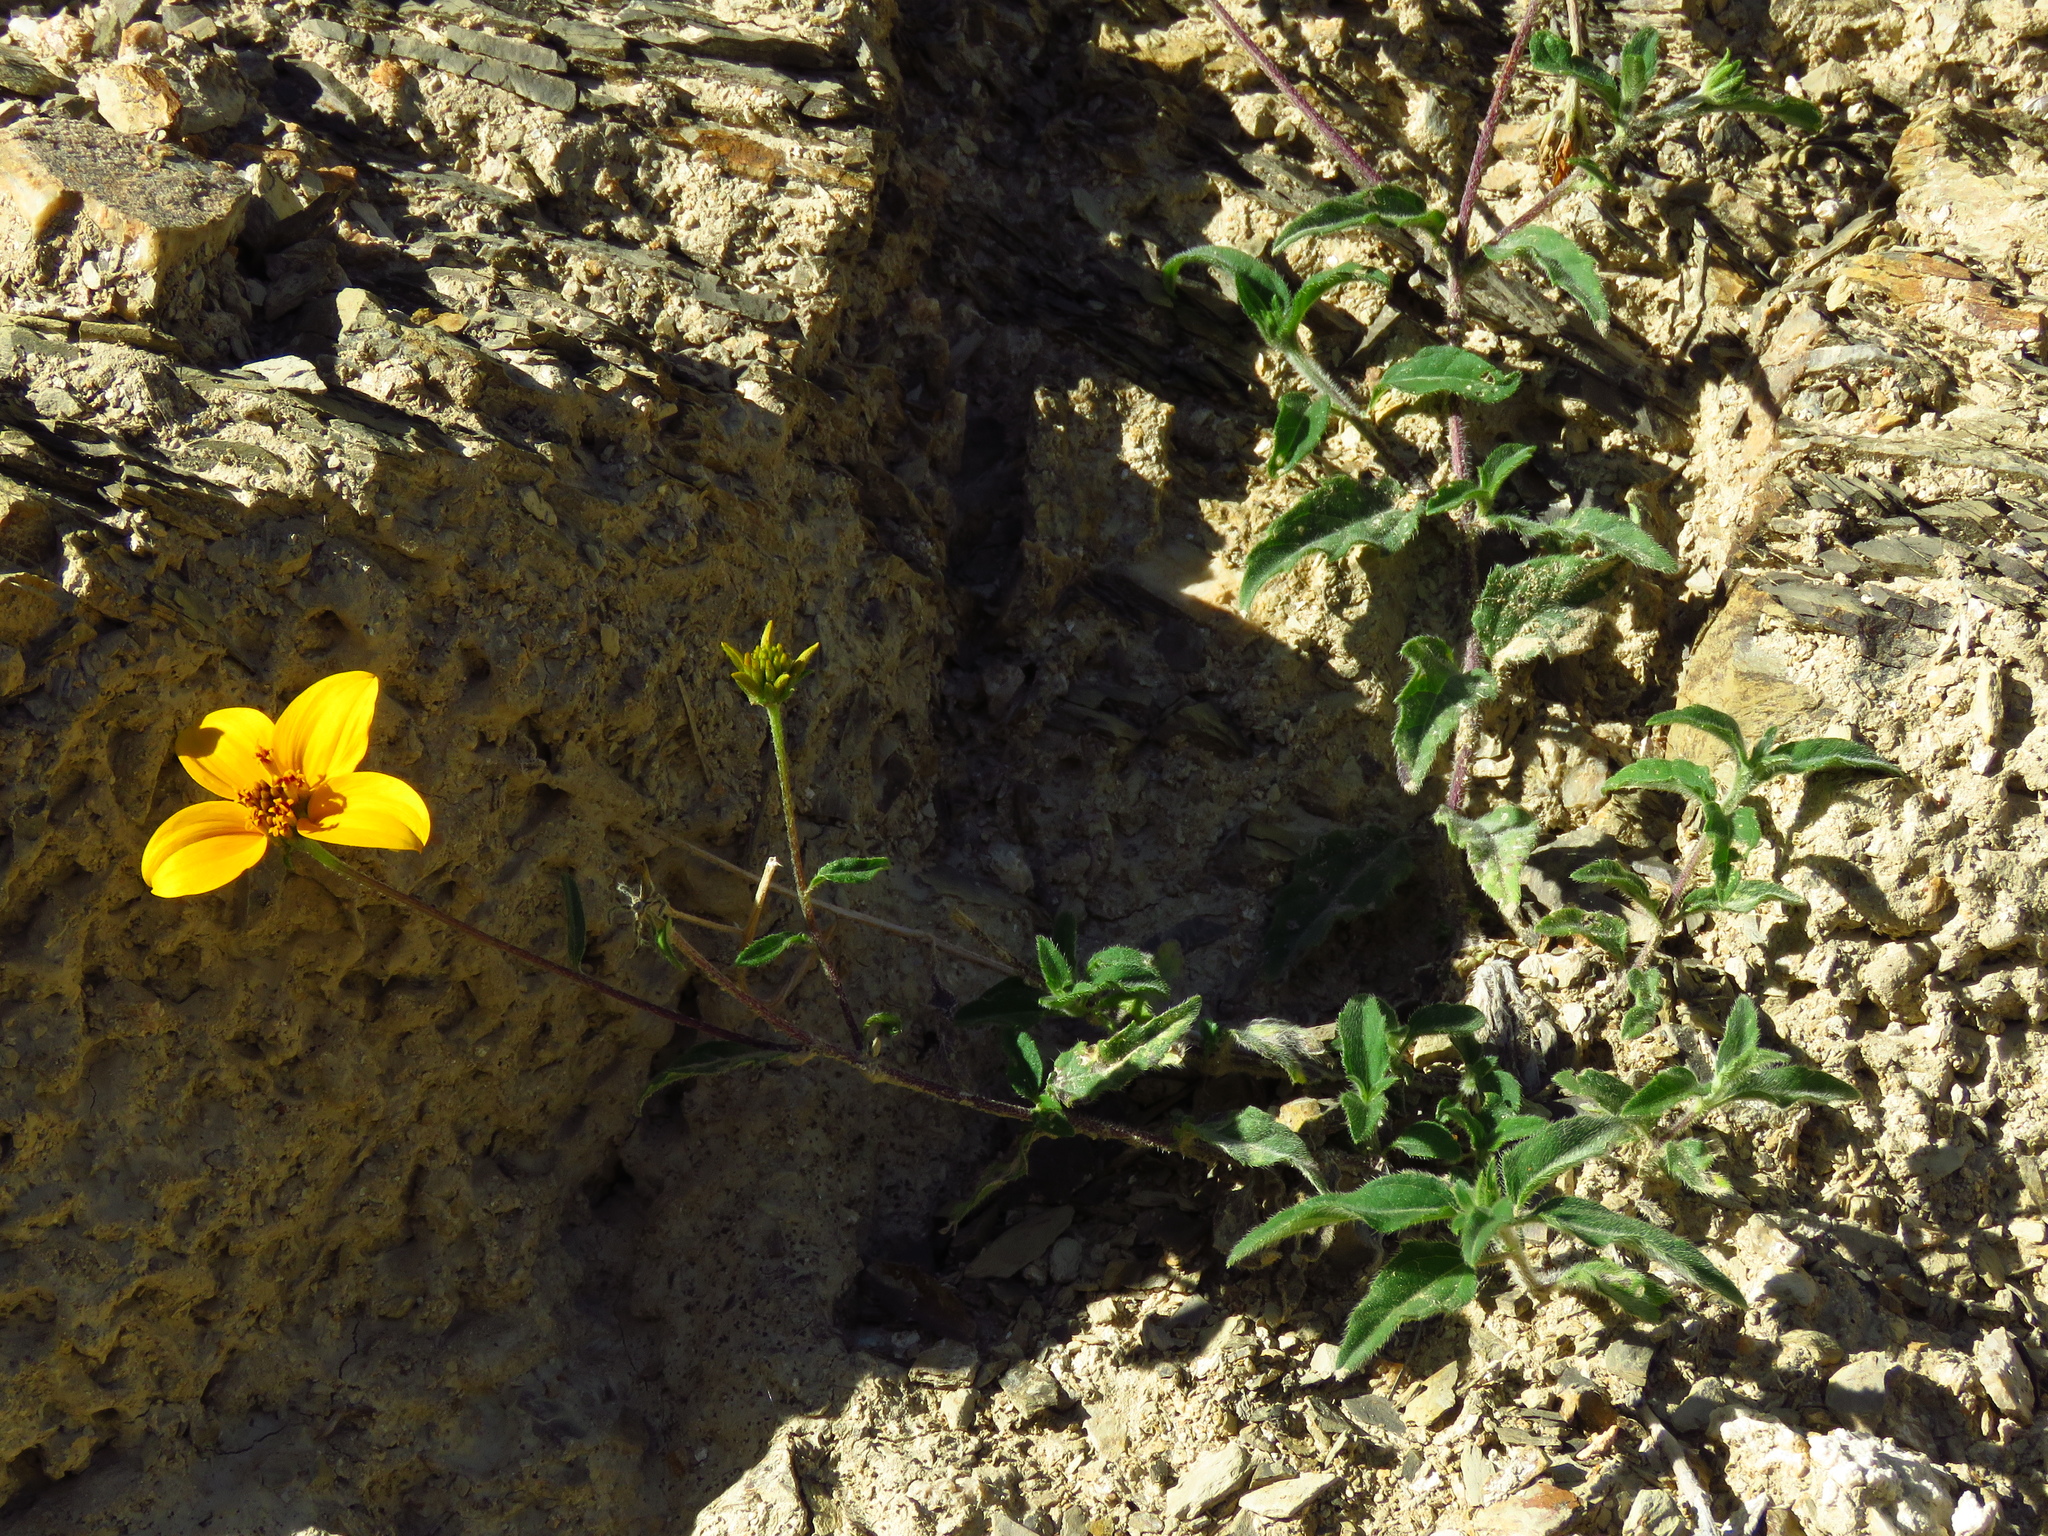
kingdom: Plantae
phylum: Tracheophyta
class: Magnoliopsida
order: Asterales
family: Asteraceae
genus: Sclerocarpus
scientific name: Sclerocarpus uniserialis
